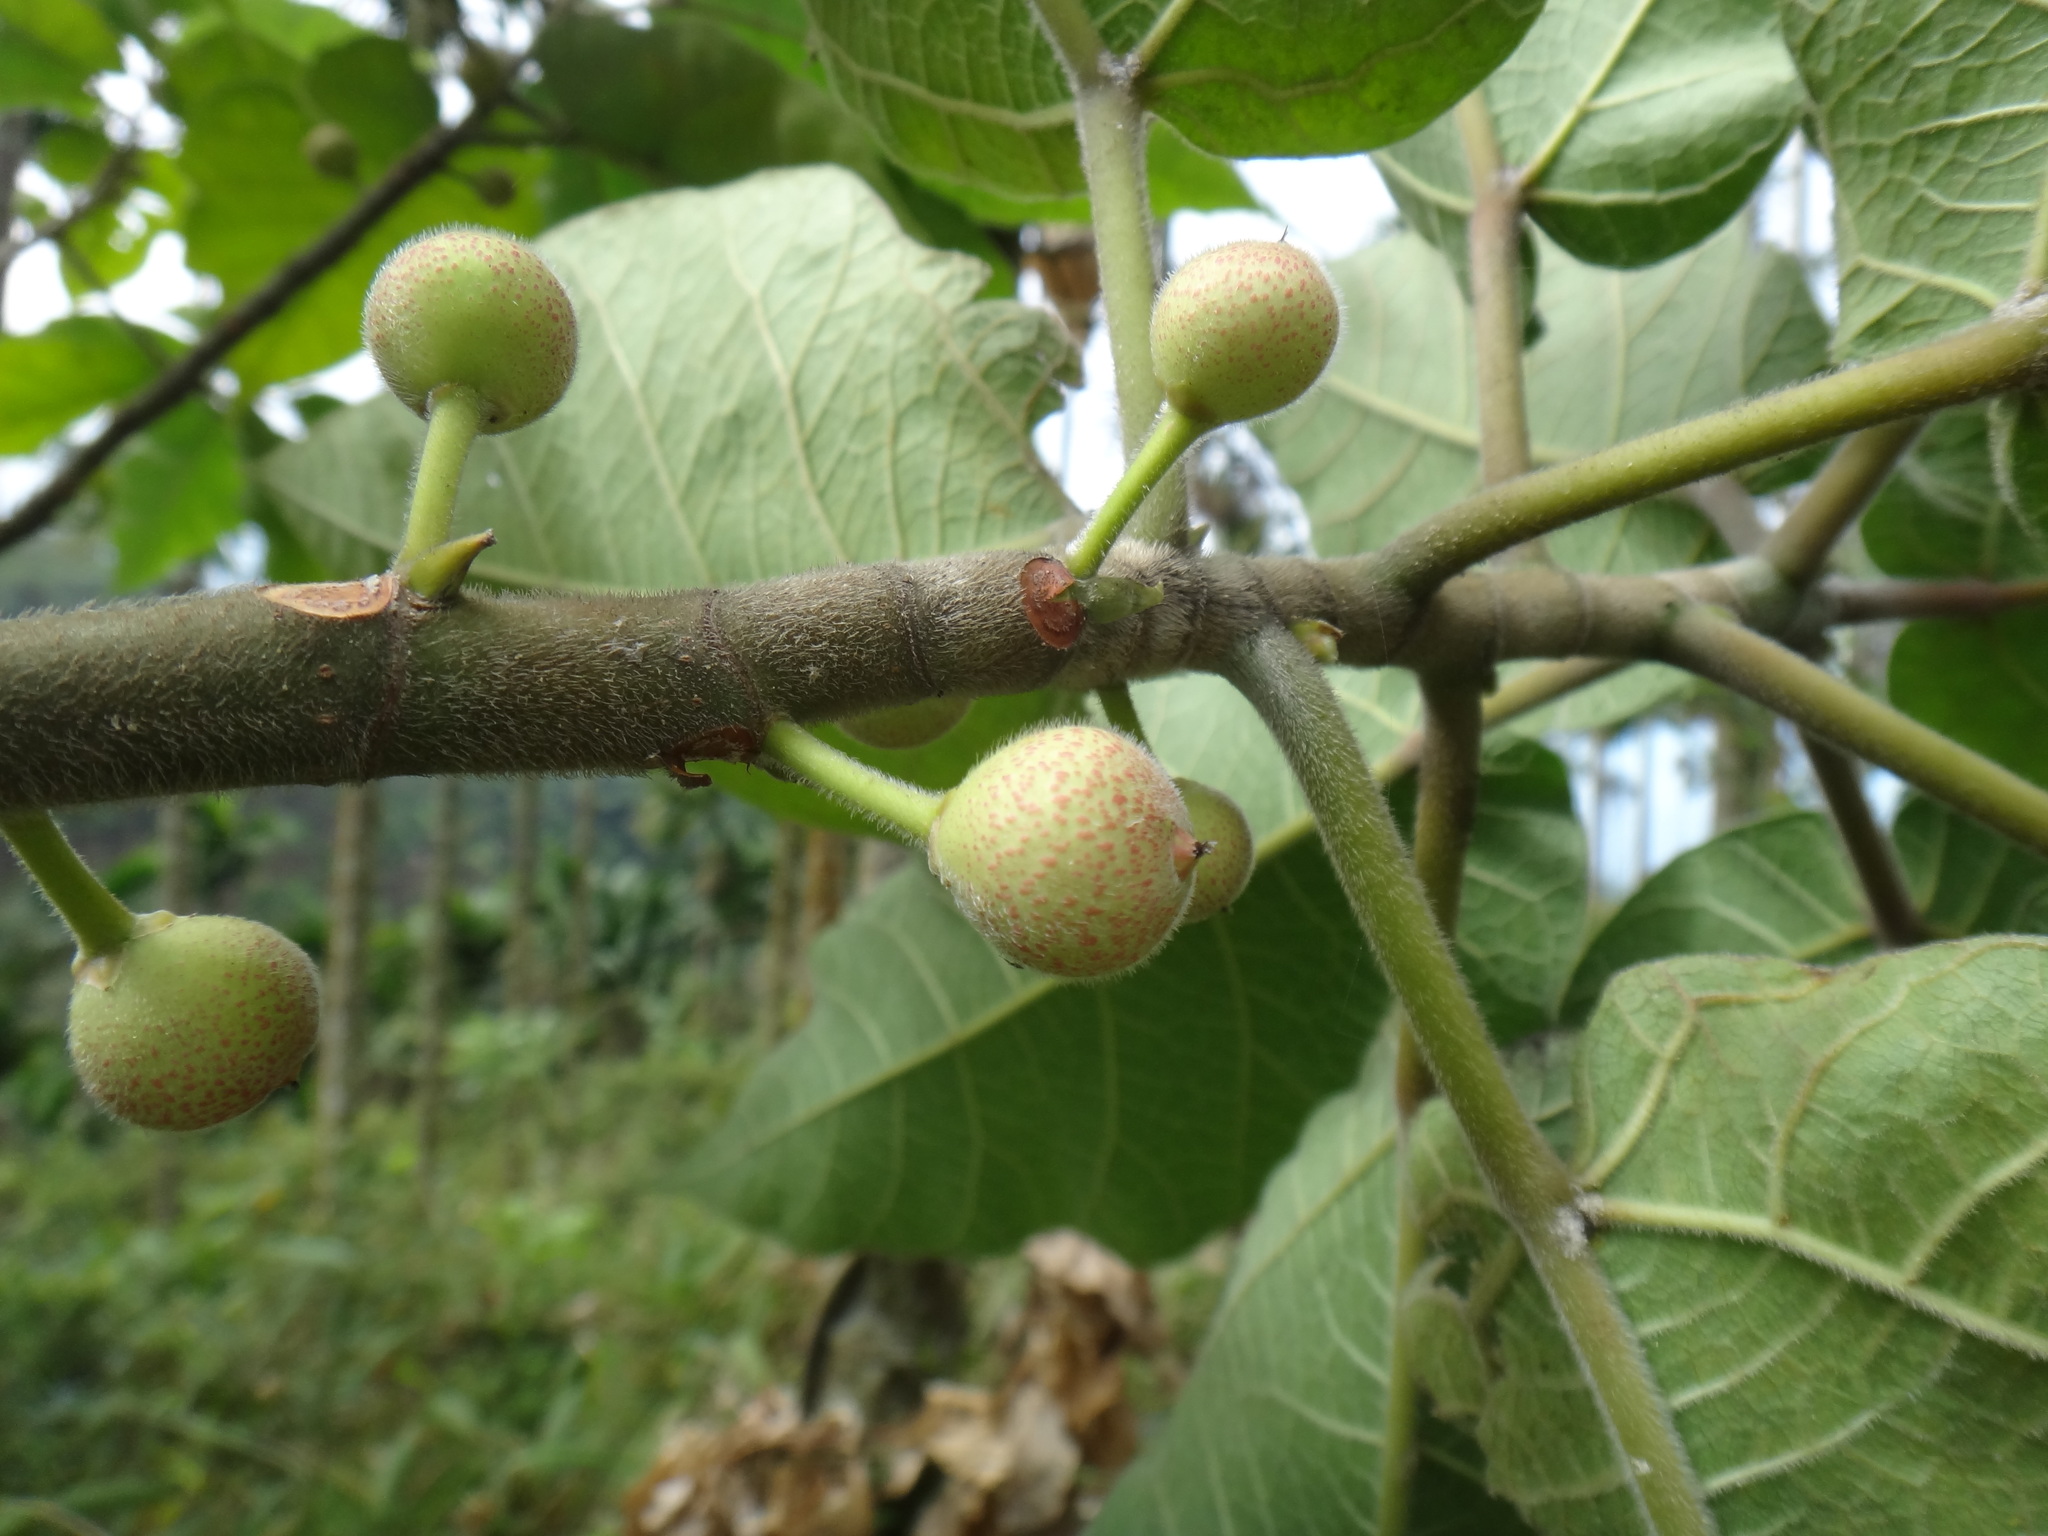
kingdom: Plantae
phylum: Tracheophyta
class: Magnoliopsida
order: Rosales
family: Moraceae
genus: Ficus
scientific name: Ficus erecta
